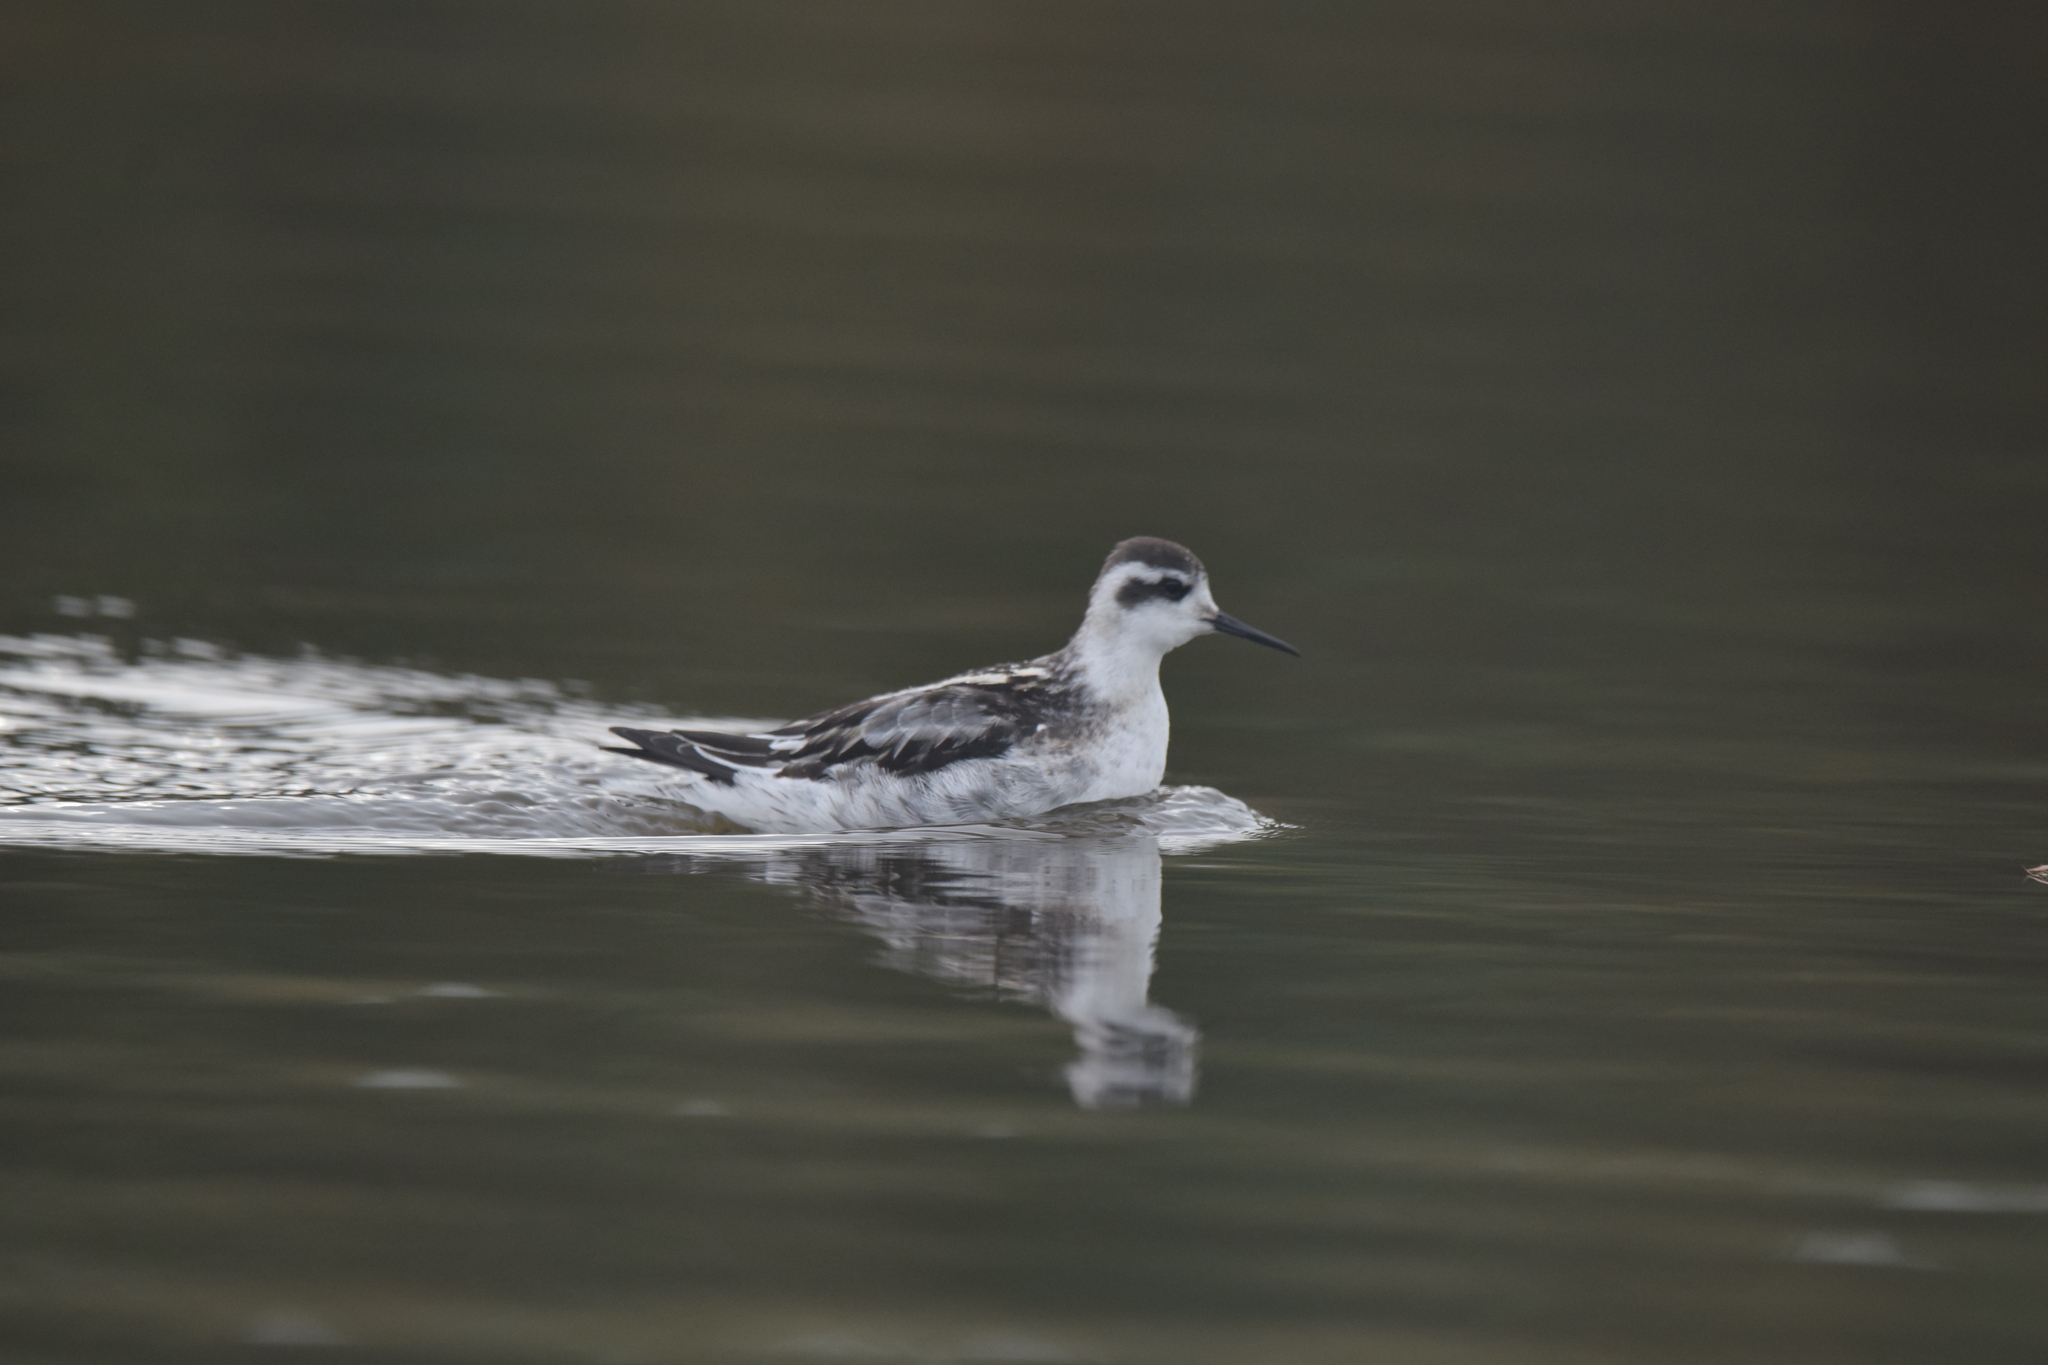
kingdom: Animalia
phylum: Chordata
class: Aves
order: Charadriiformes
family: Scolopacidae
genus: Phalaropus
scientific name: Phalaropus lobatus
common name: Red-necked phalarope
